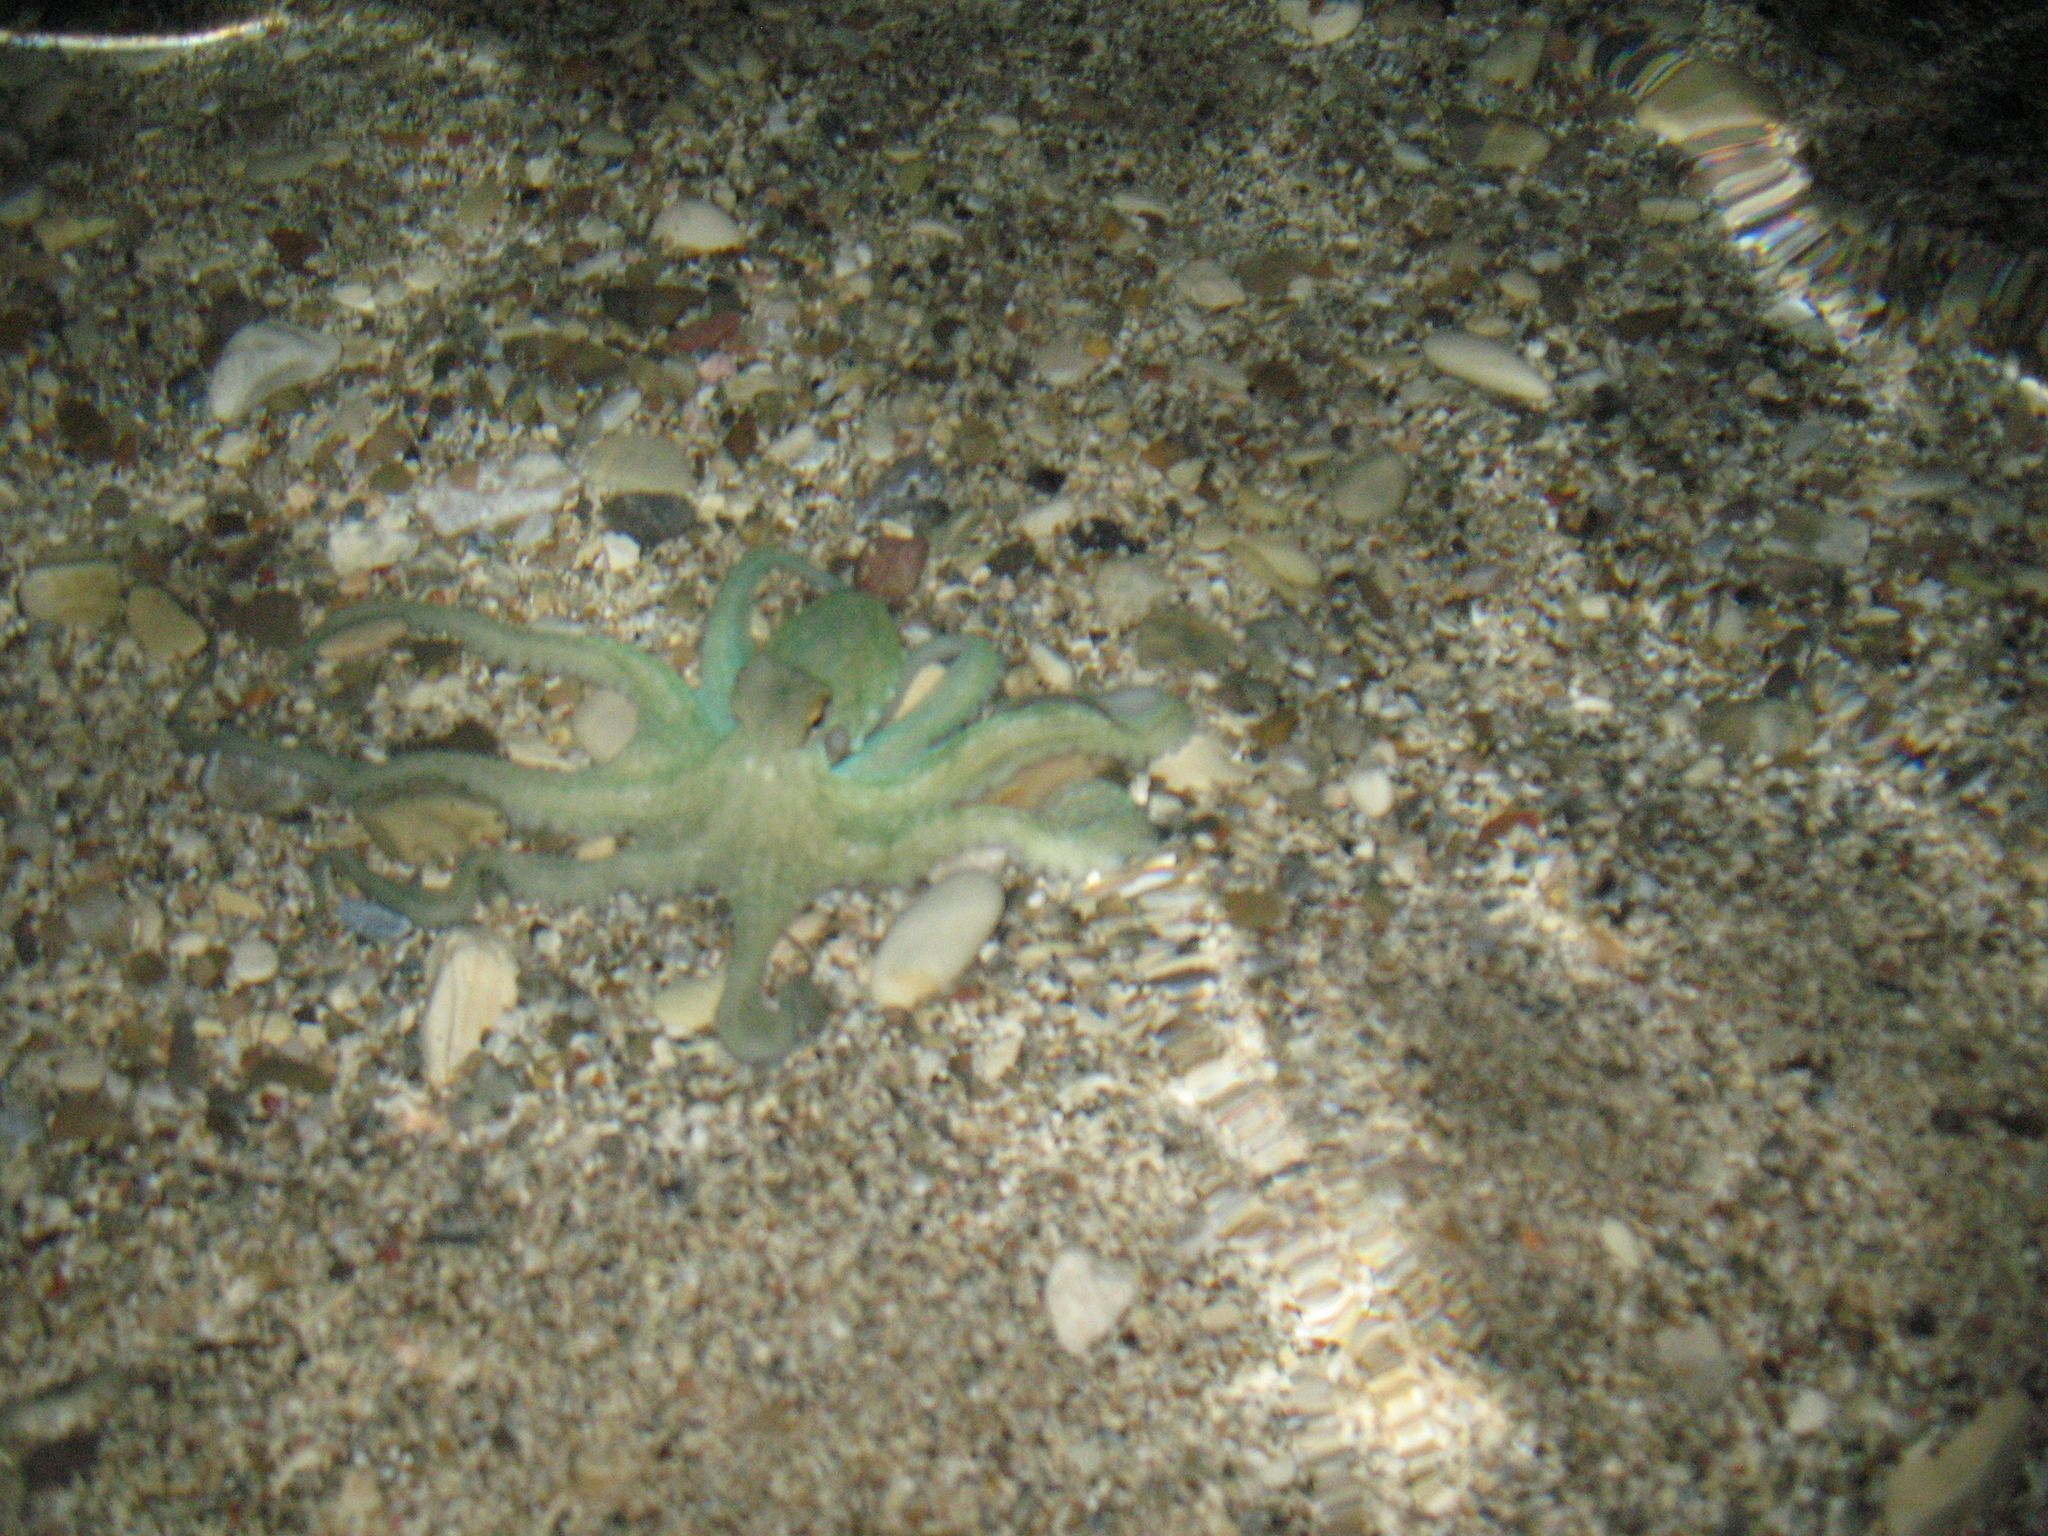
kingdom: Animalia
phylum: Mollusca
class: Cephalopoda
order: Octopoda
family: Octopodidae
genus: Octopus
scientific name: Octopus vulgaris
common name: Common octopus
